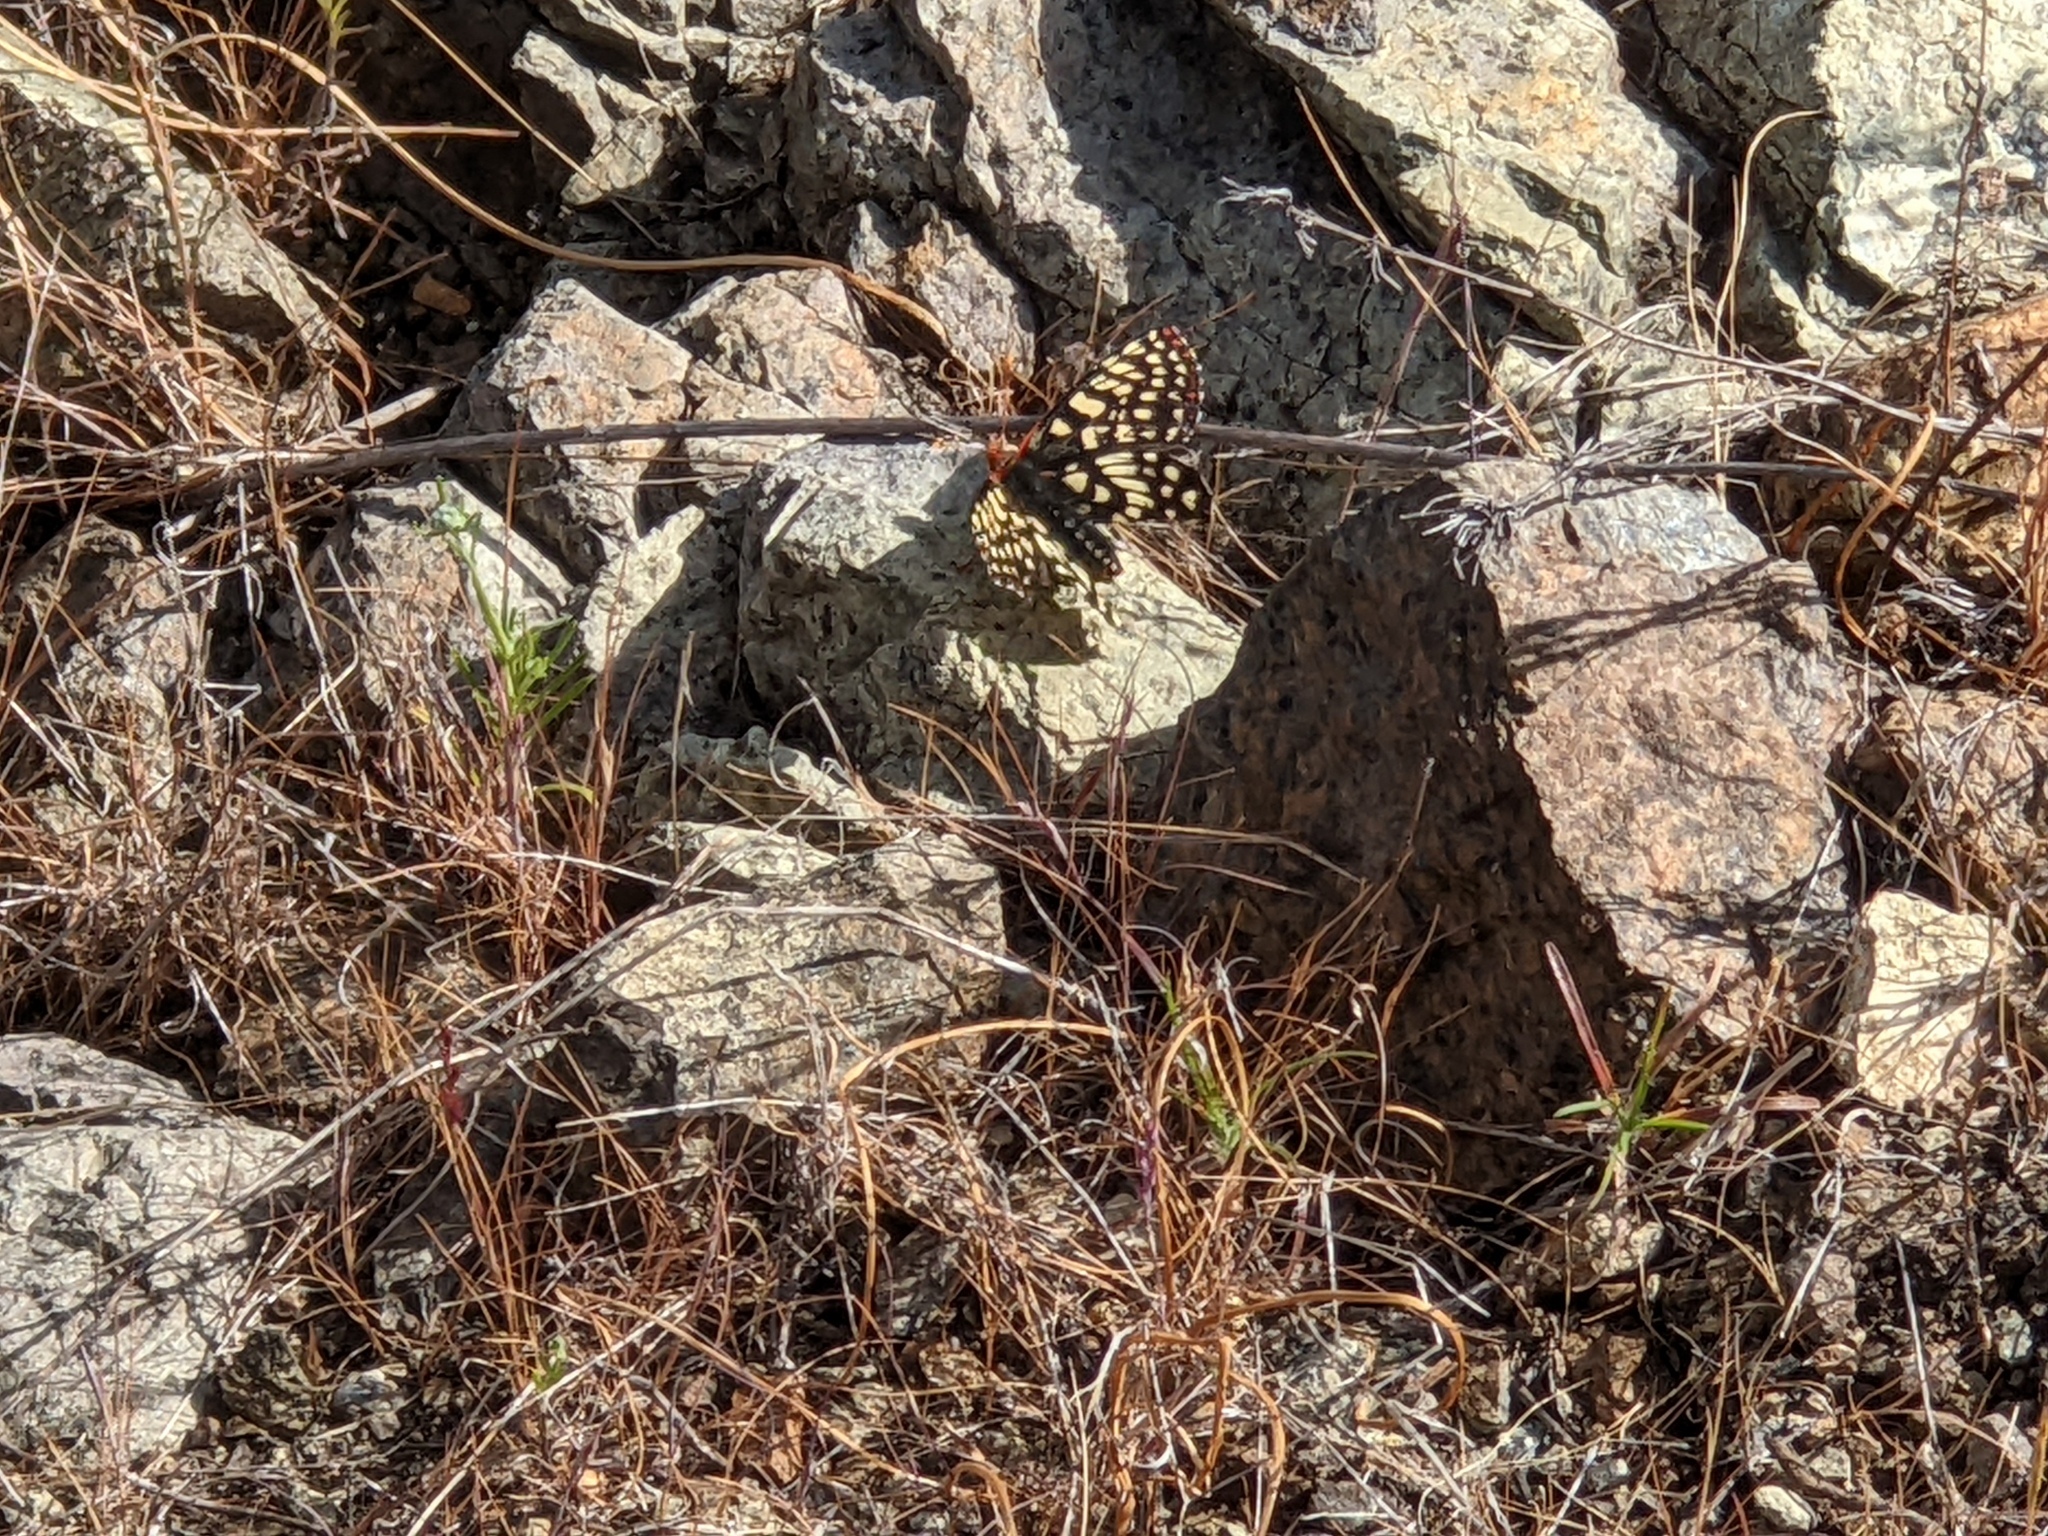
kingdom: Animalia
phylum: Arthropoda
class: Insecta
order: Lepidoptera
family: Nymphalidae
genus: Occidryas
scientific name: Occidryas chalcedona
